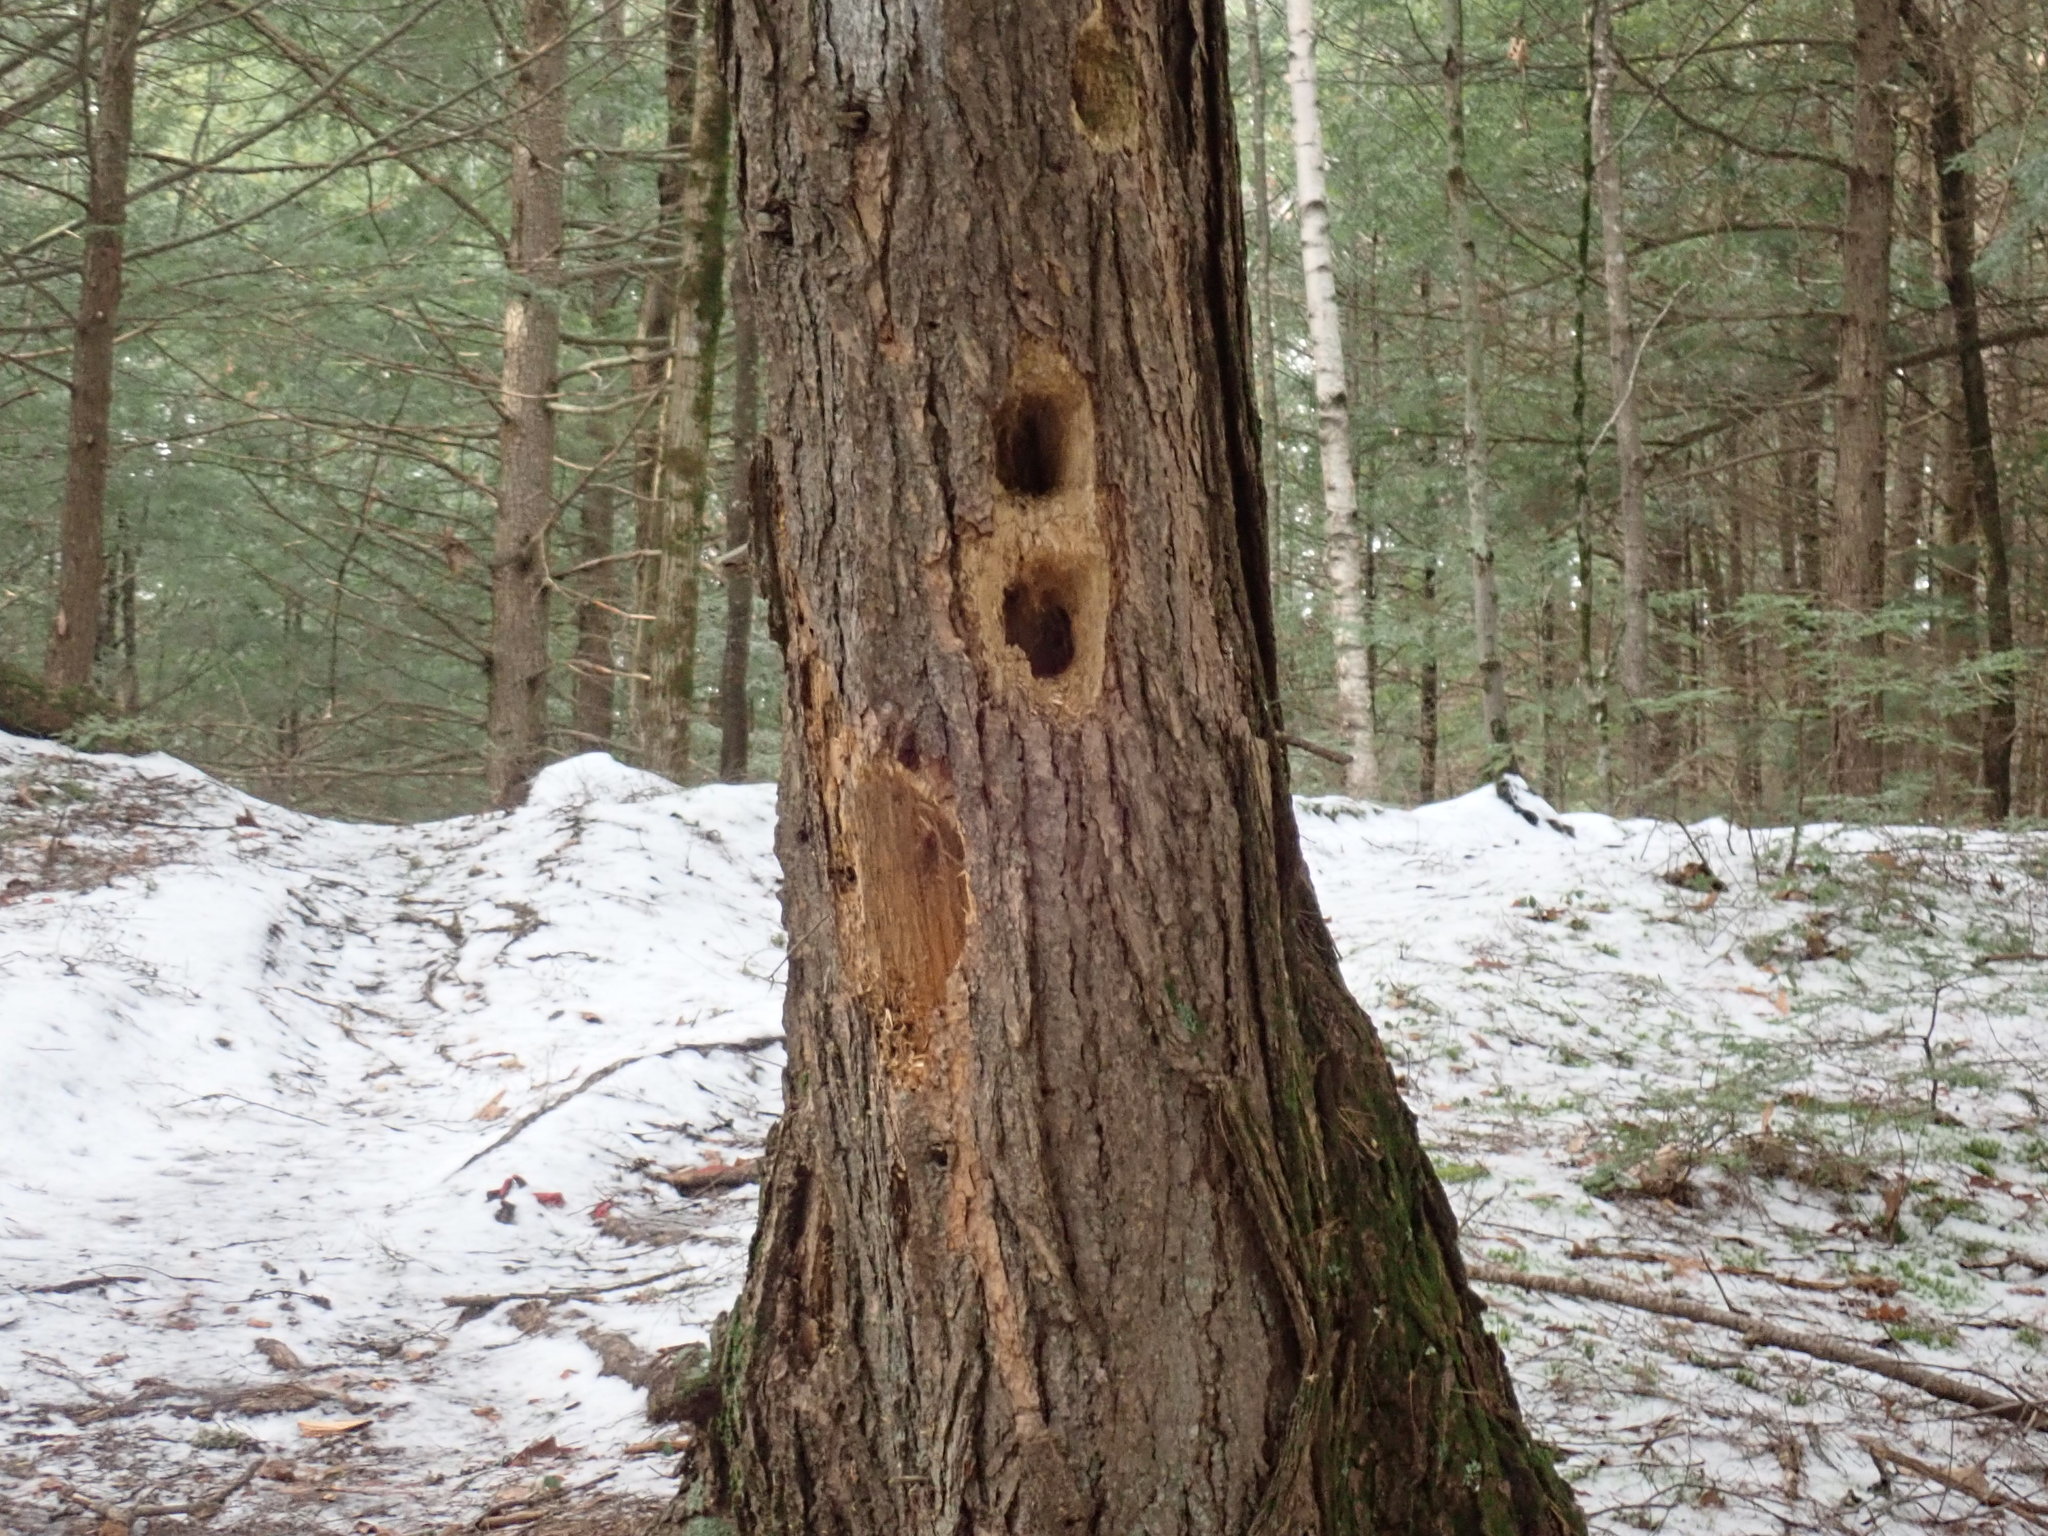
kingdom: Animalia
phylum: Chordata
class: Aves
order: Piciformes
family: Picidae
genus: Dryocopus
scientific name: Dryocopus pileatus
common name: Pileated woodpecker
